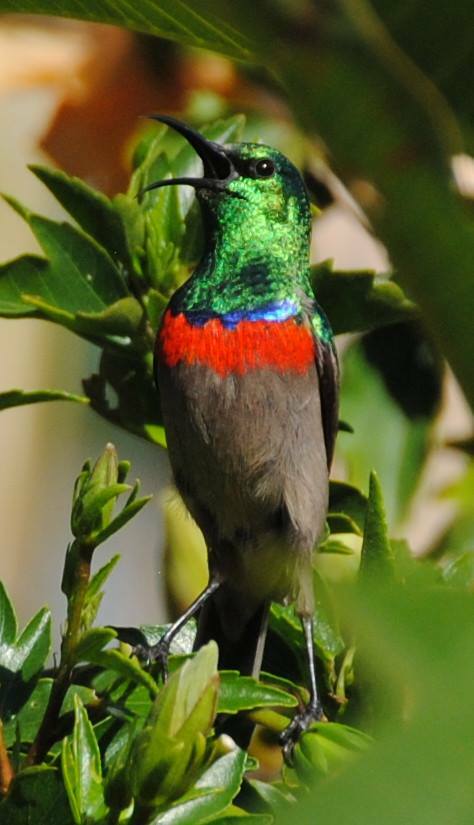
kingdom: Animalia
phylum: Chordata
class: Aves
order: Passeriformes
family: Nectariniidae
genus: Cinnyris
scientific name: Cinnyris chalybeus
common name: Southern double-collared sunbird
